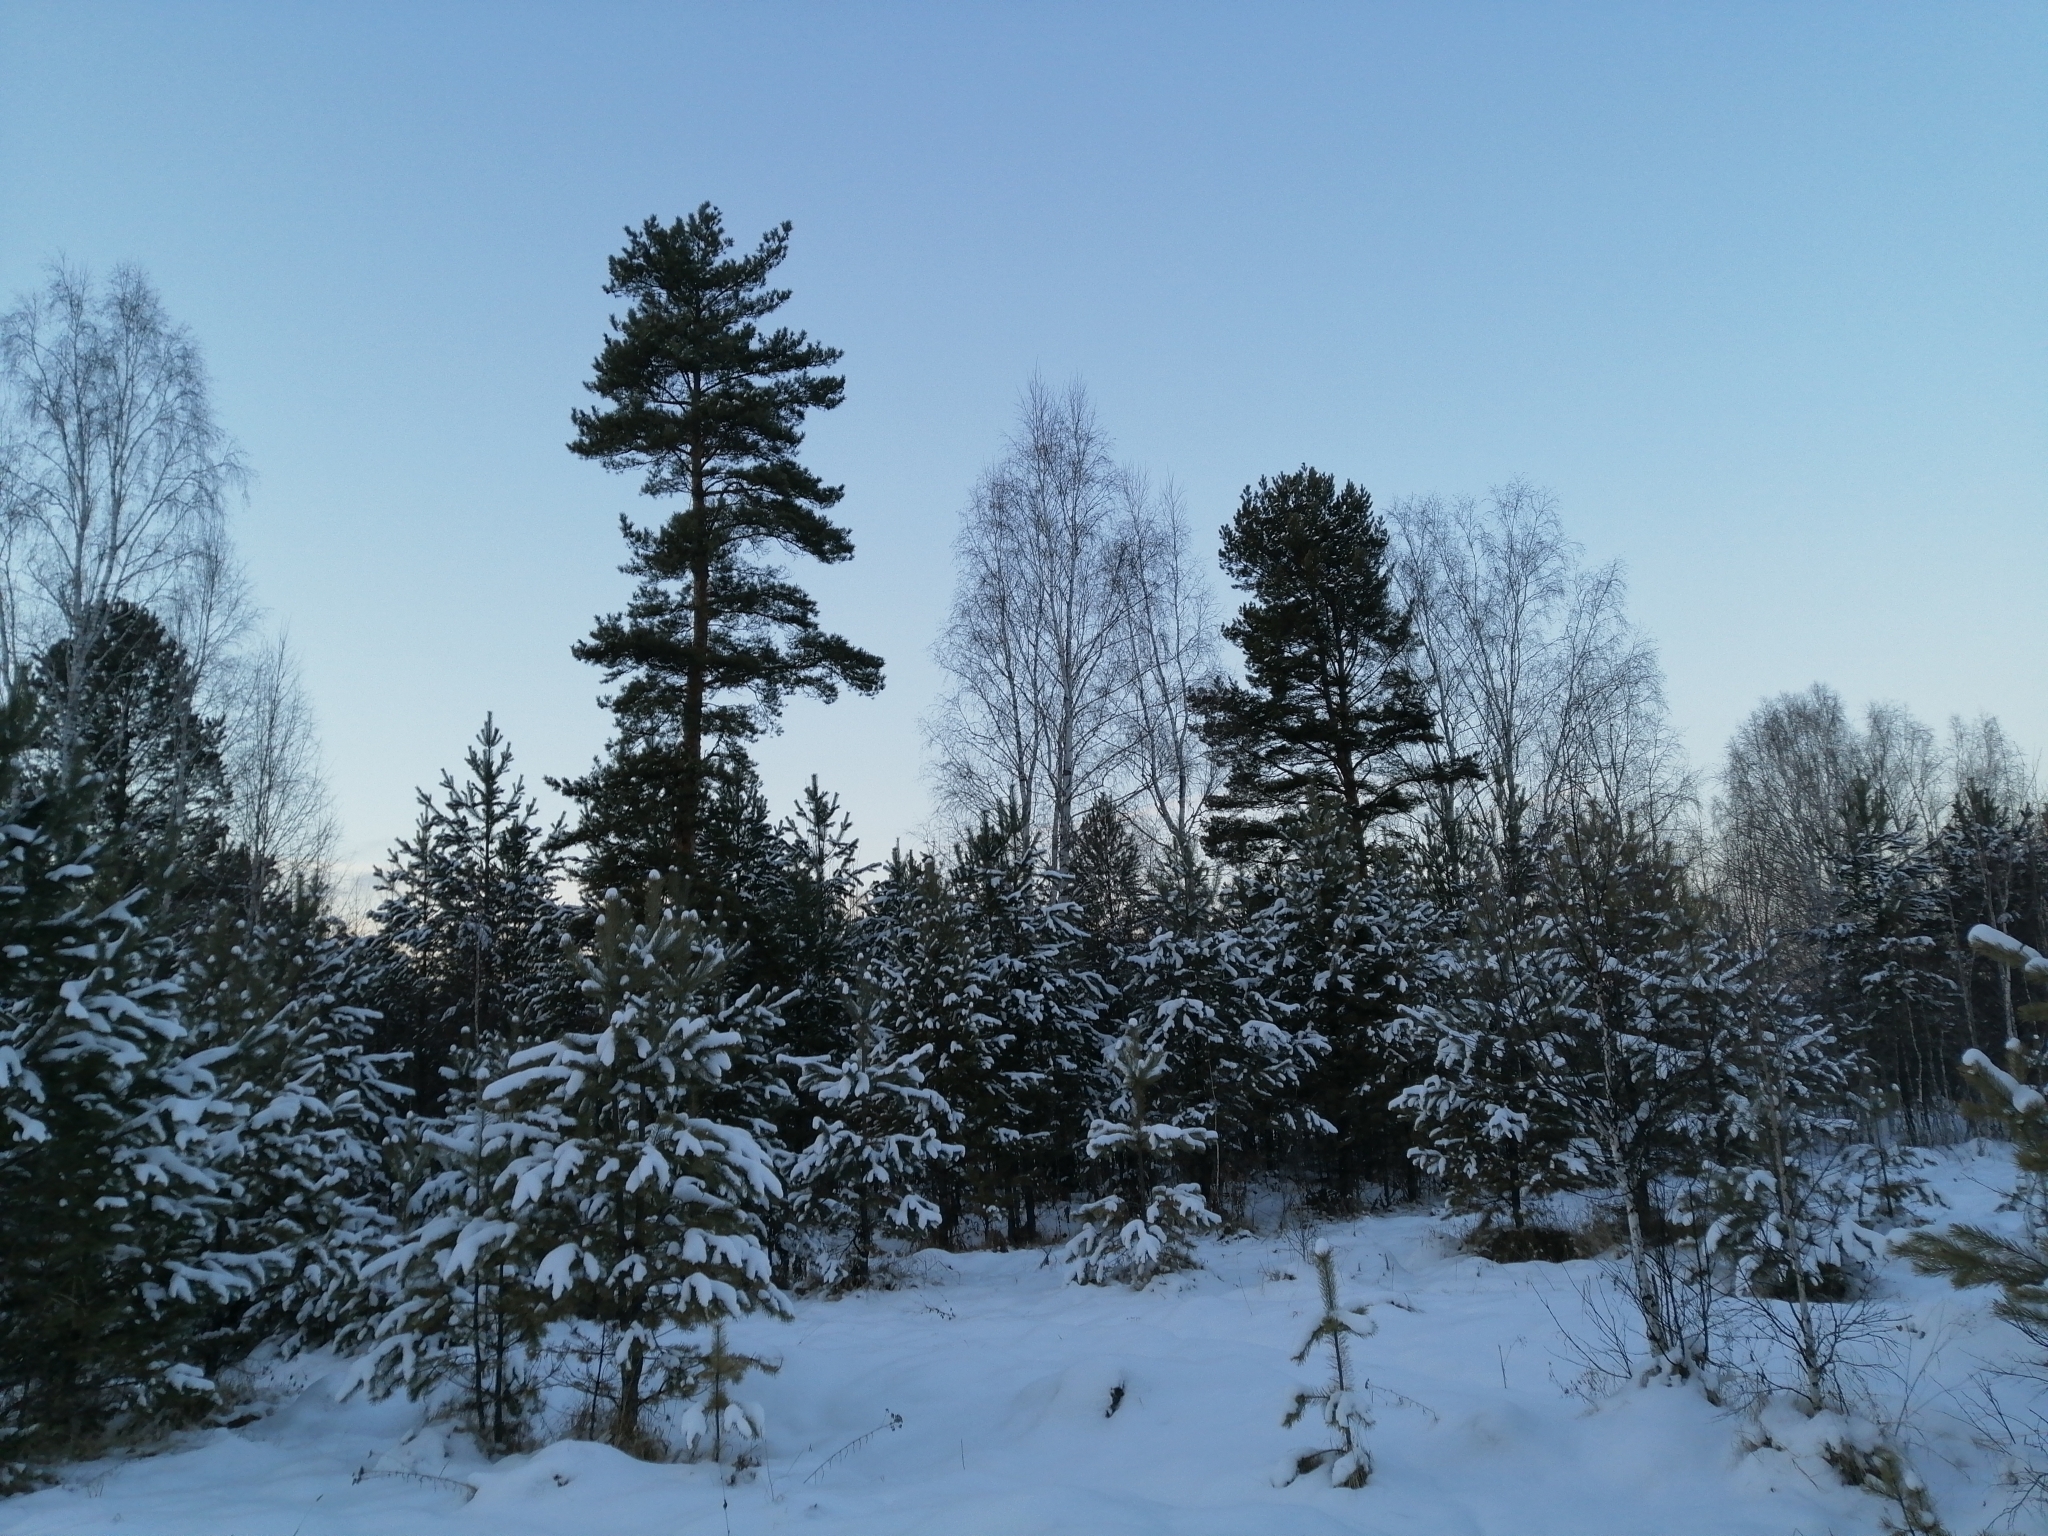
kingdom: Plantae
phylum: Tracheophyta
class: Pinopsida
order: Pinales
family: Pinaceae
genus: Pinus
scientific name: Pinus sylvestris
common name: Scots pine
